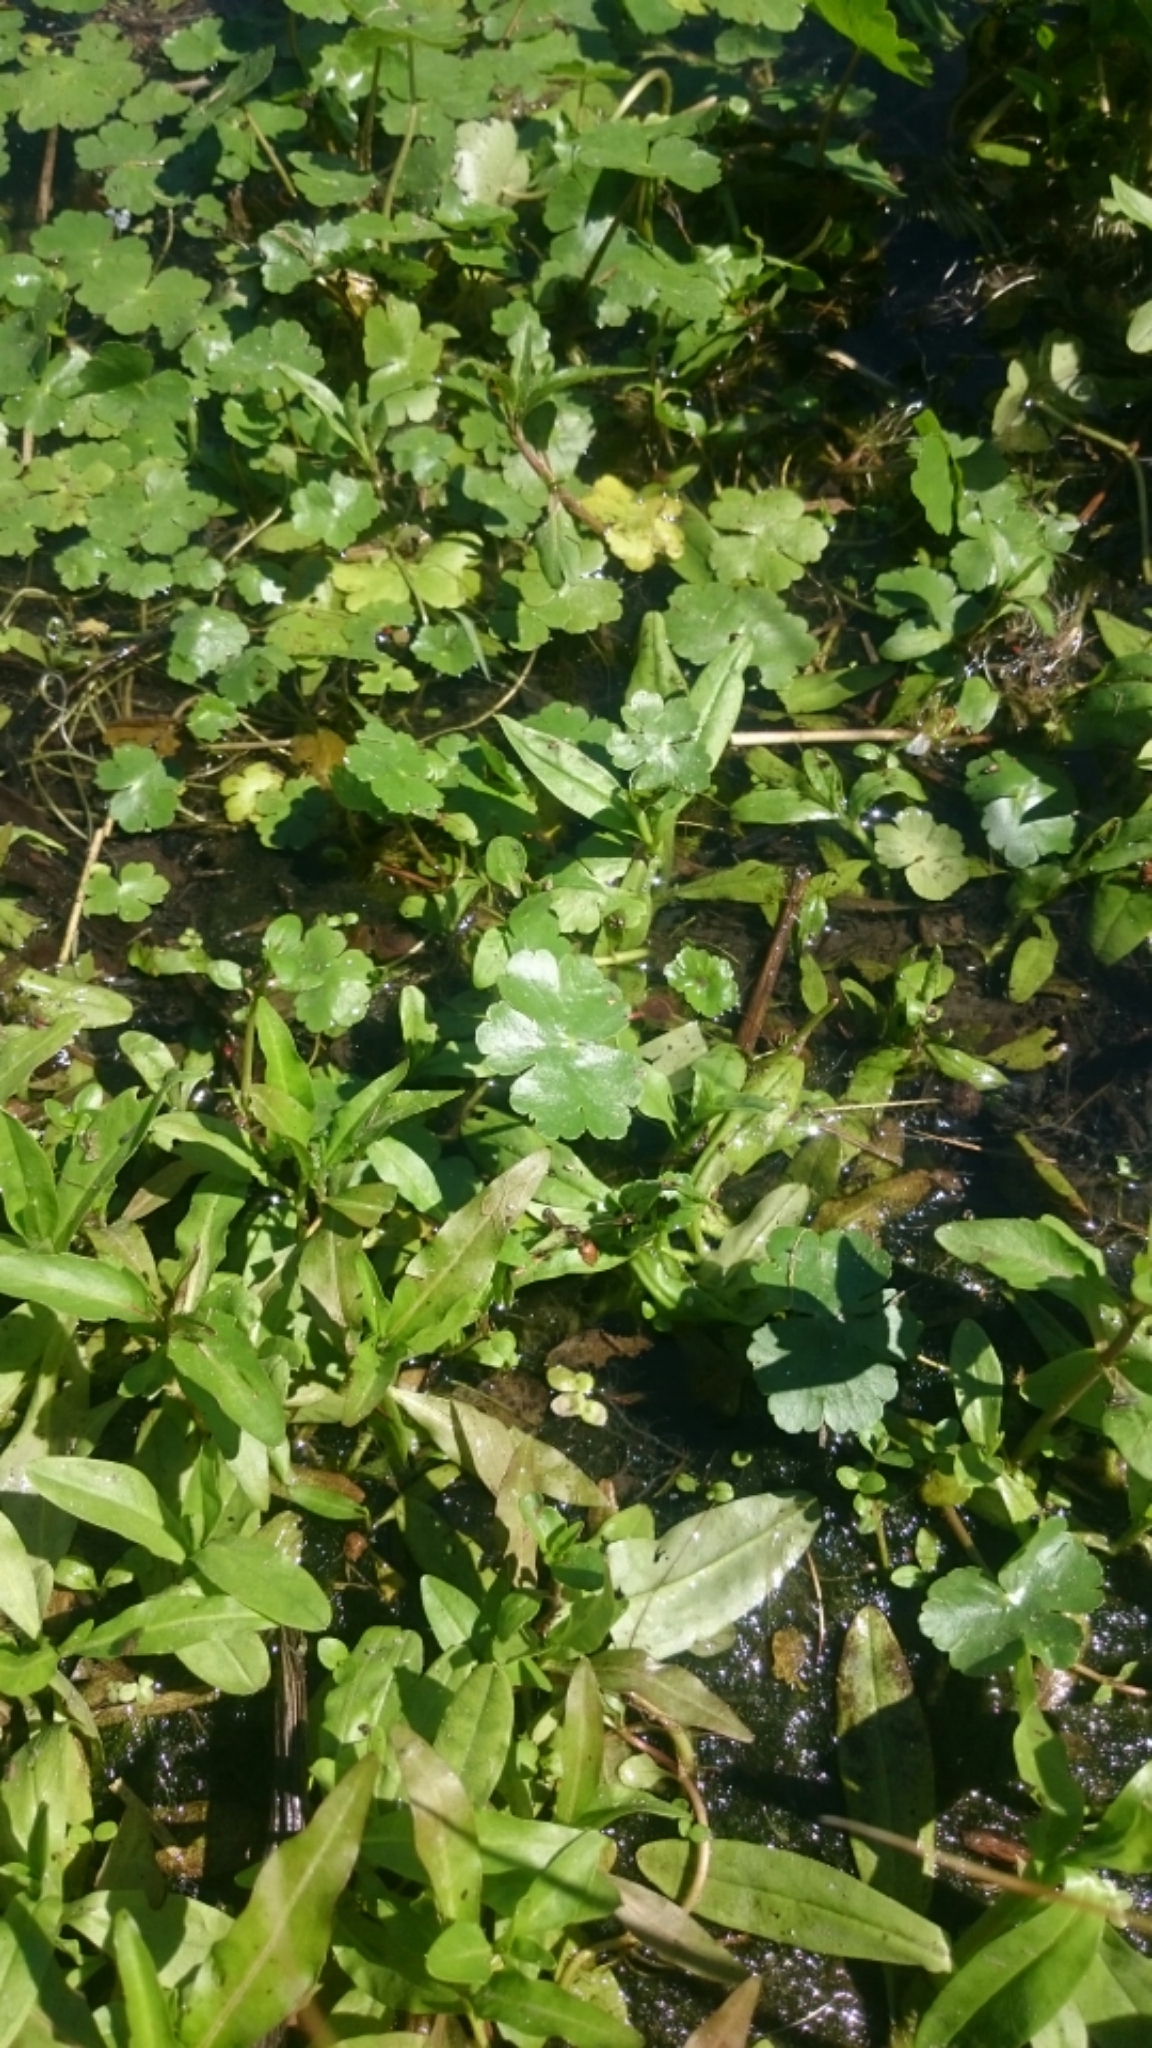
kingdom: Plantae
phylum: Tracheophyta
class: Magnoliopsida
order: Apiales
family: Araliaceae
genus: Hydrocotyle
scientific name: Hydrocotyle ranunculoides
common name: Floating pennywort
